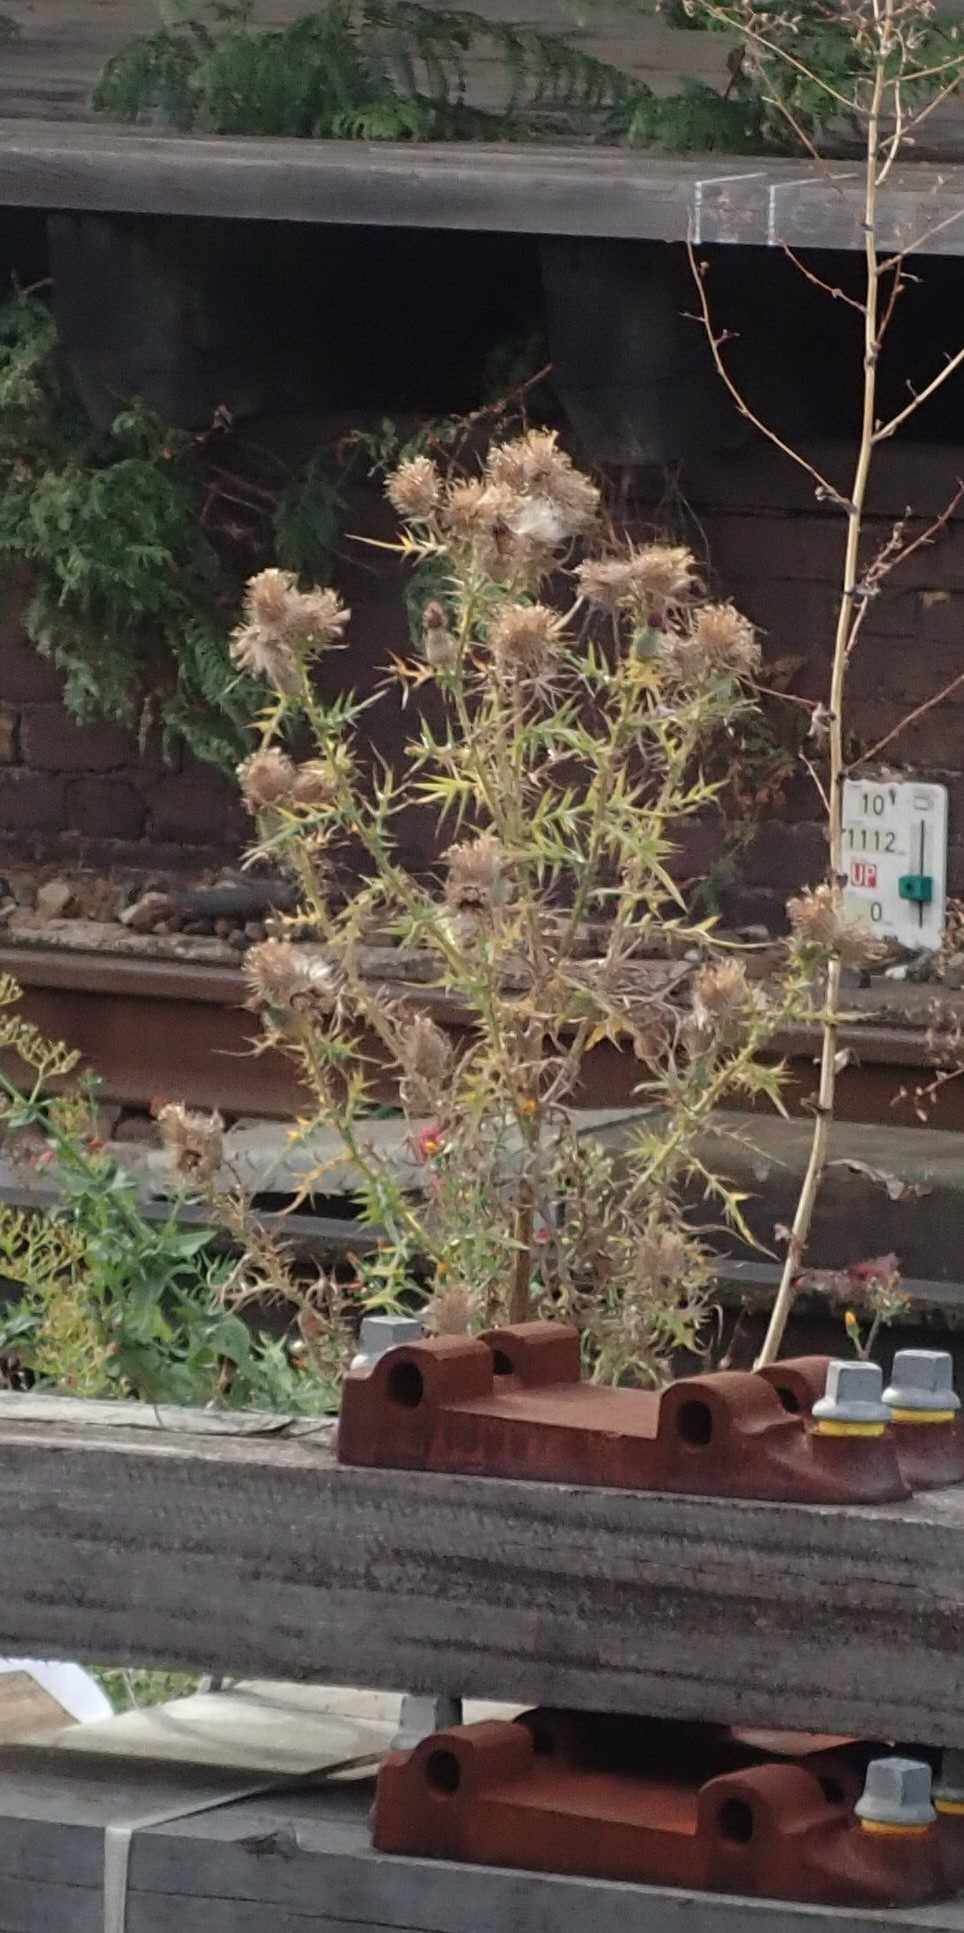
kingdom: Plantae
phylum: Tracheophyta
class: Magnoliopsida
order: Asterales
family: Asteraceae
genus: Cirsium
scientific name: Cirsium vulgare
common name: Bull thistle
